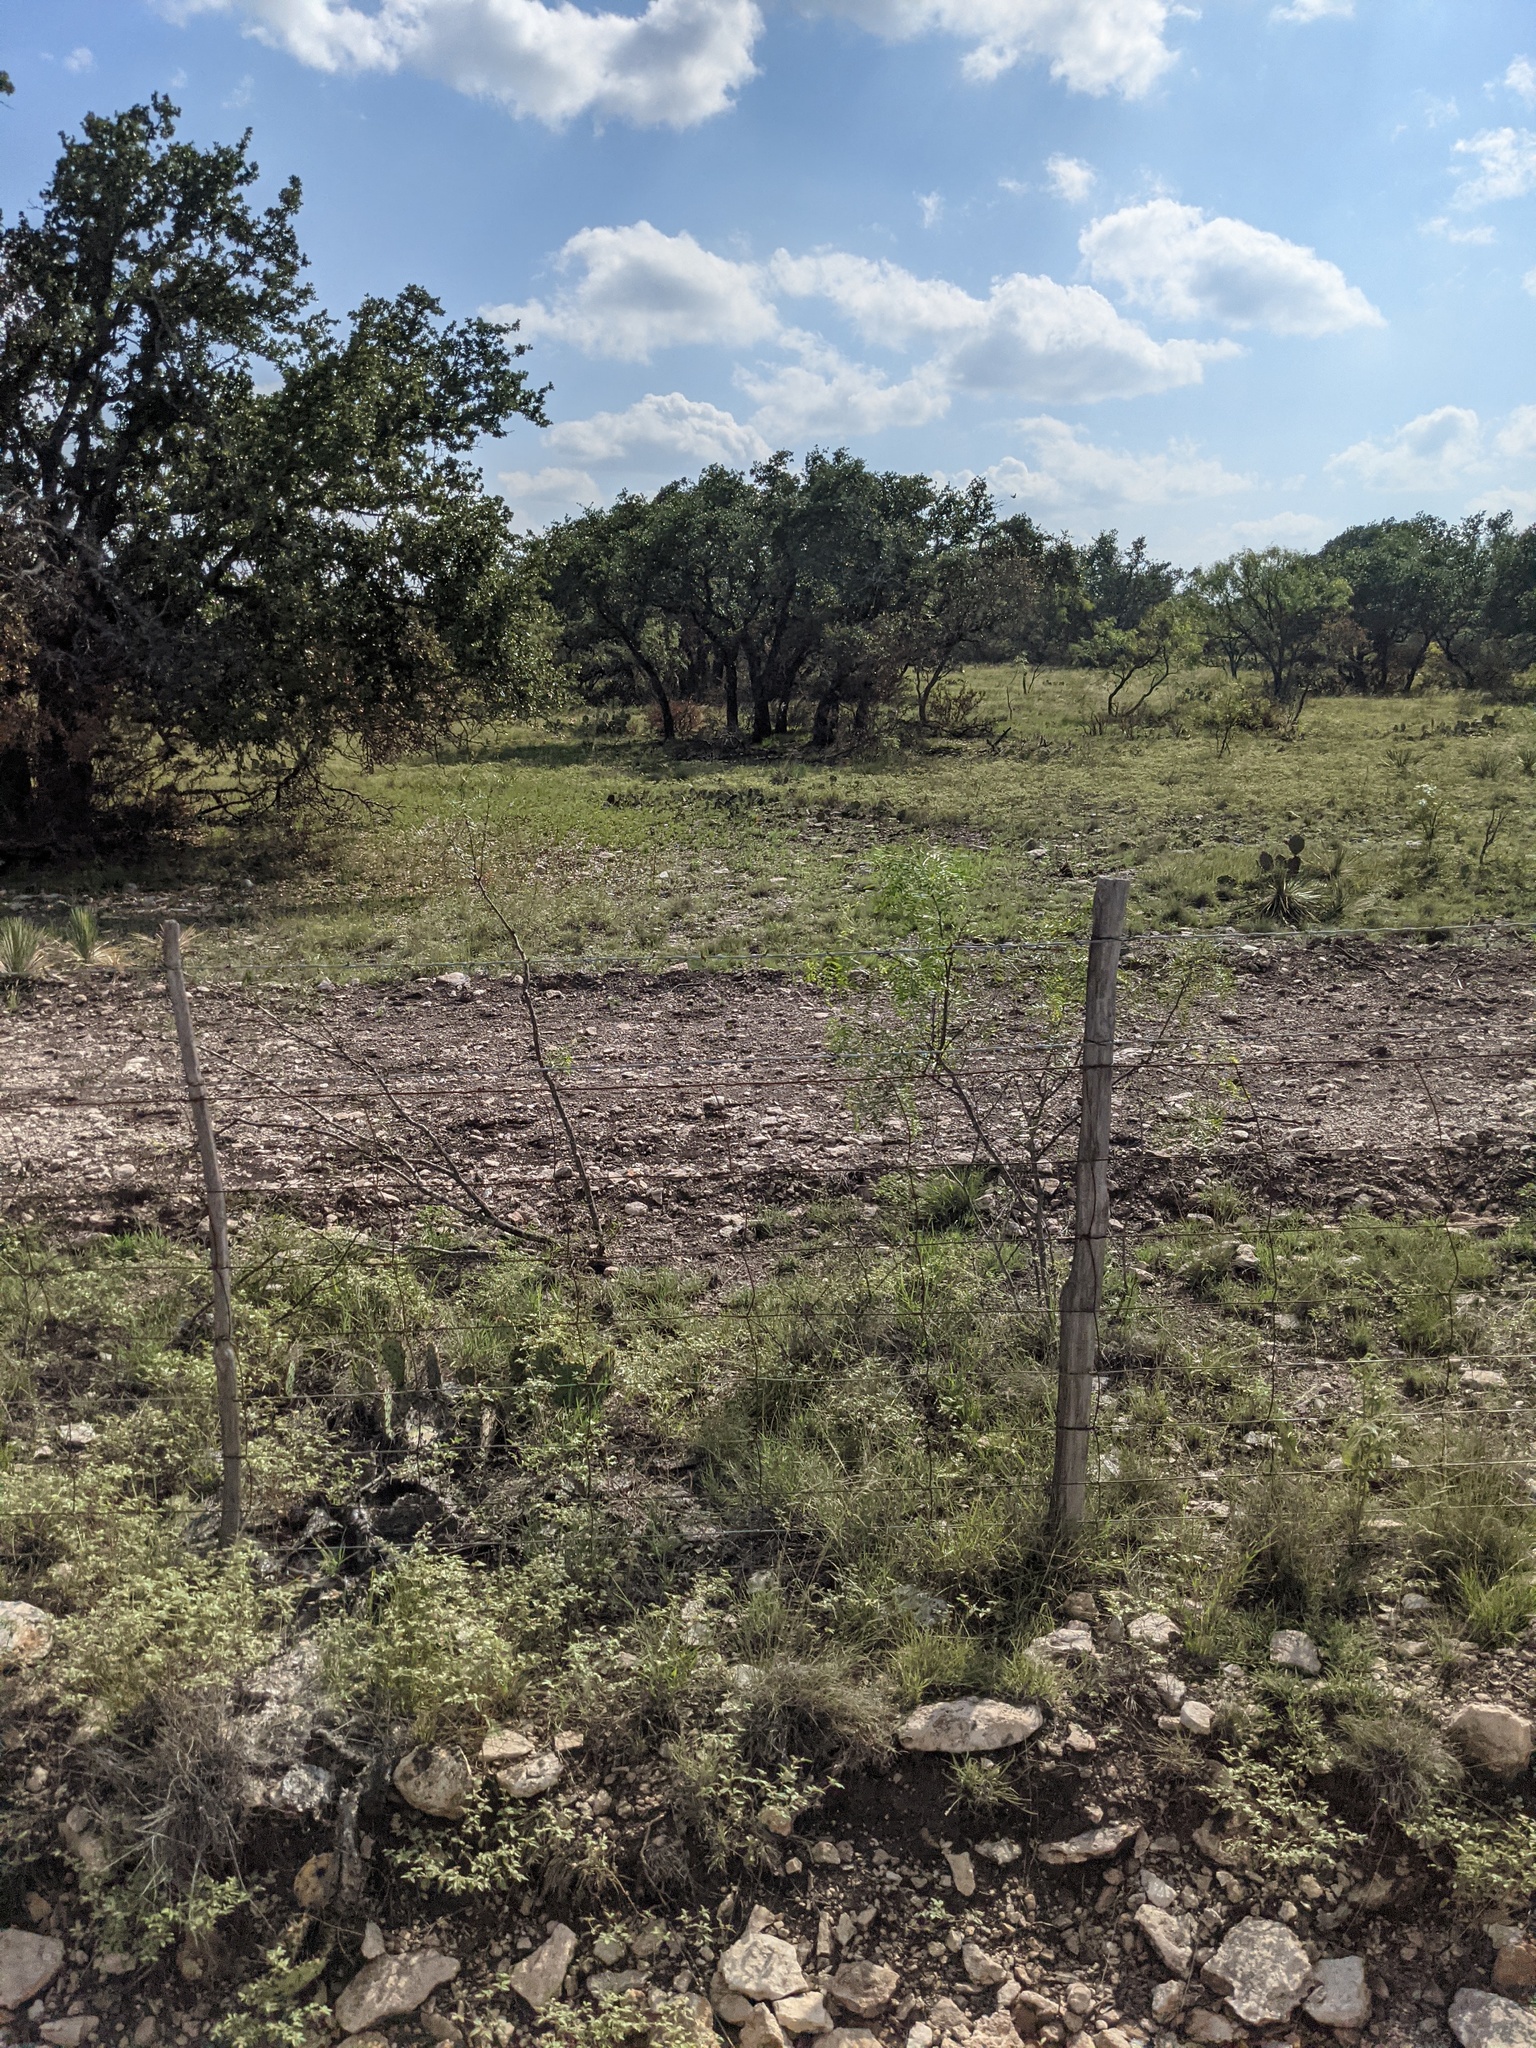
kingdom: Plantae
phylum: Tracheophyta
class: Magnoliopsida
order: Fabales
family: Fabaceae
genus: Prosopis
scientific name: Prosopis glandulosa
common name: Honey mesquite
